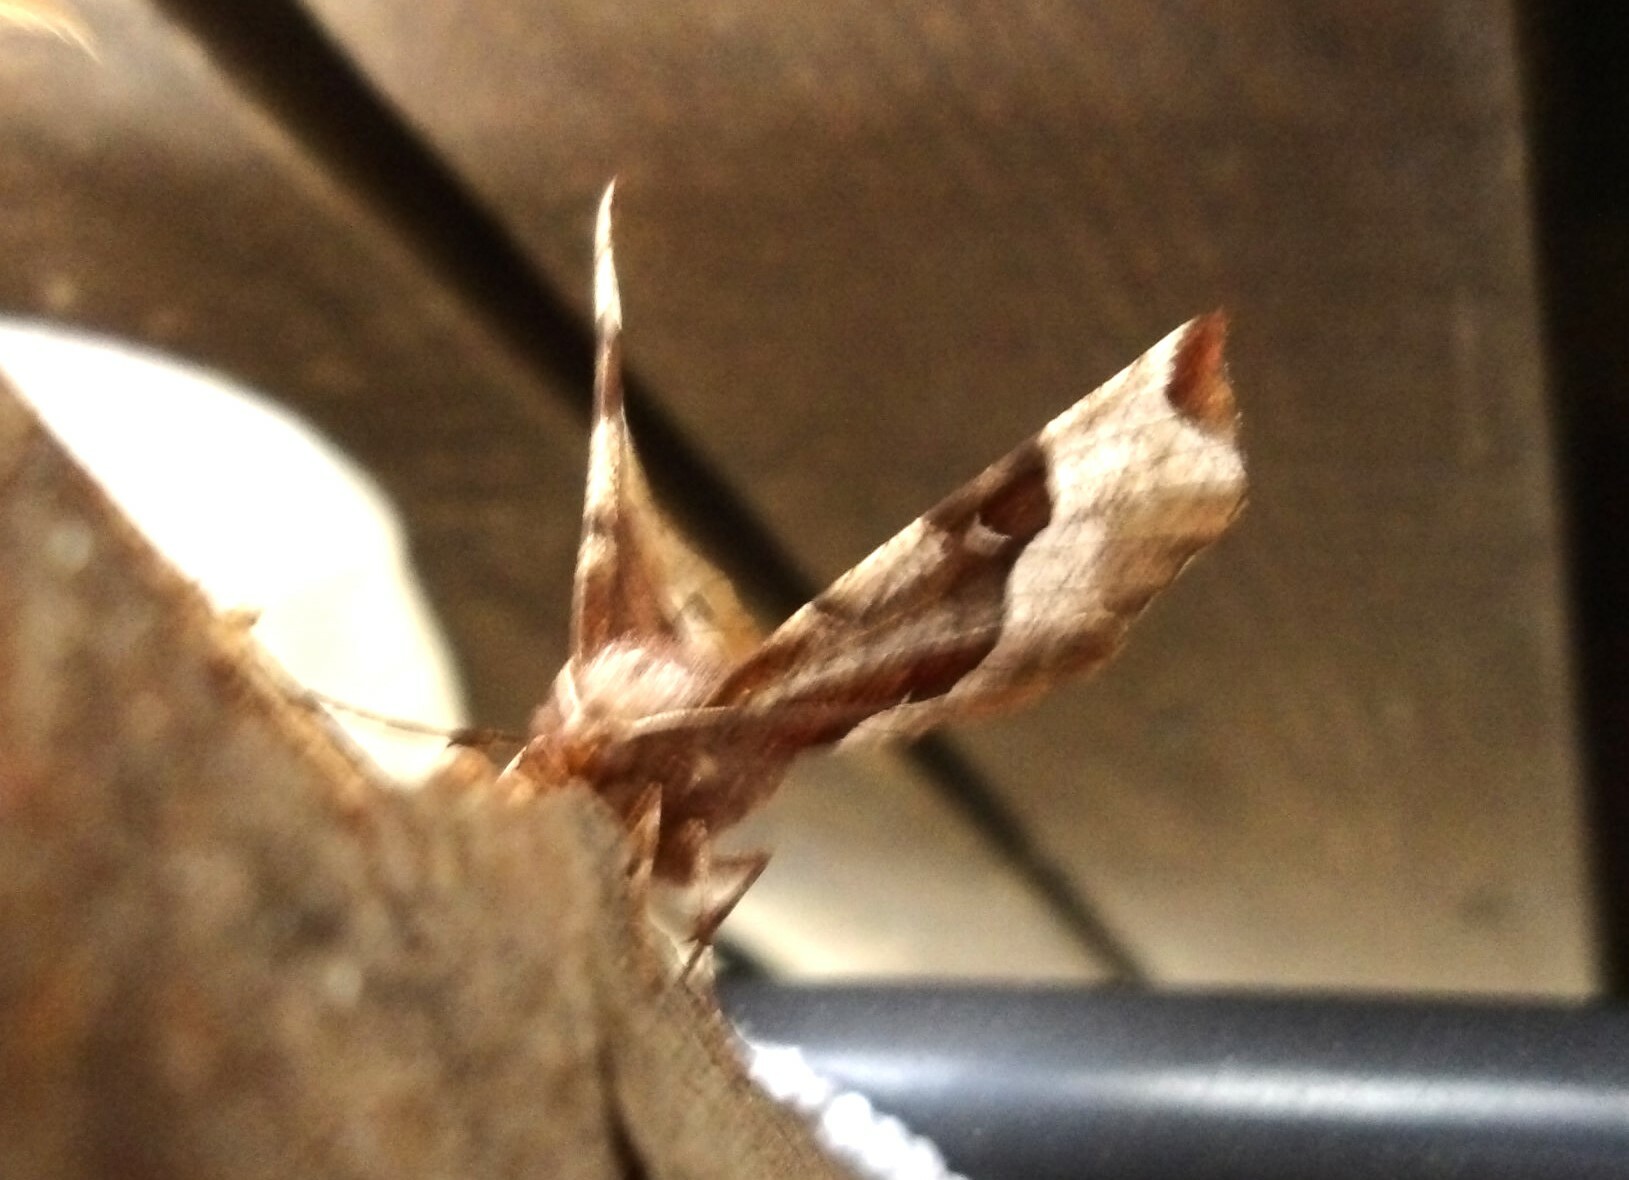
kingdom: Animalia
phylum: Arthropoda
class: Insecta
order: Lepidoptera
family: Geometridae
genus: Selenia
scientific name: Selenia tetralunaria
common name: Purple thorn
